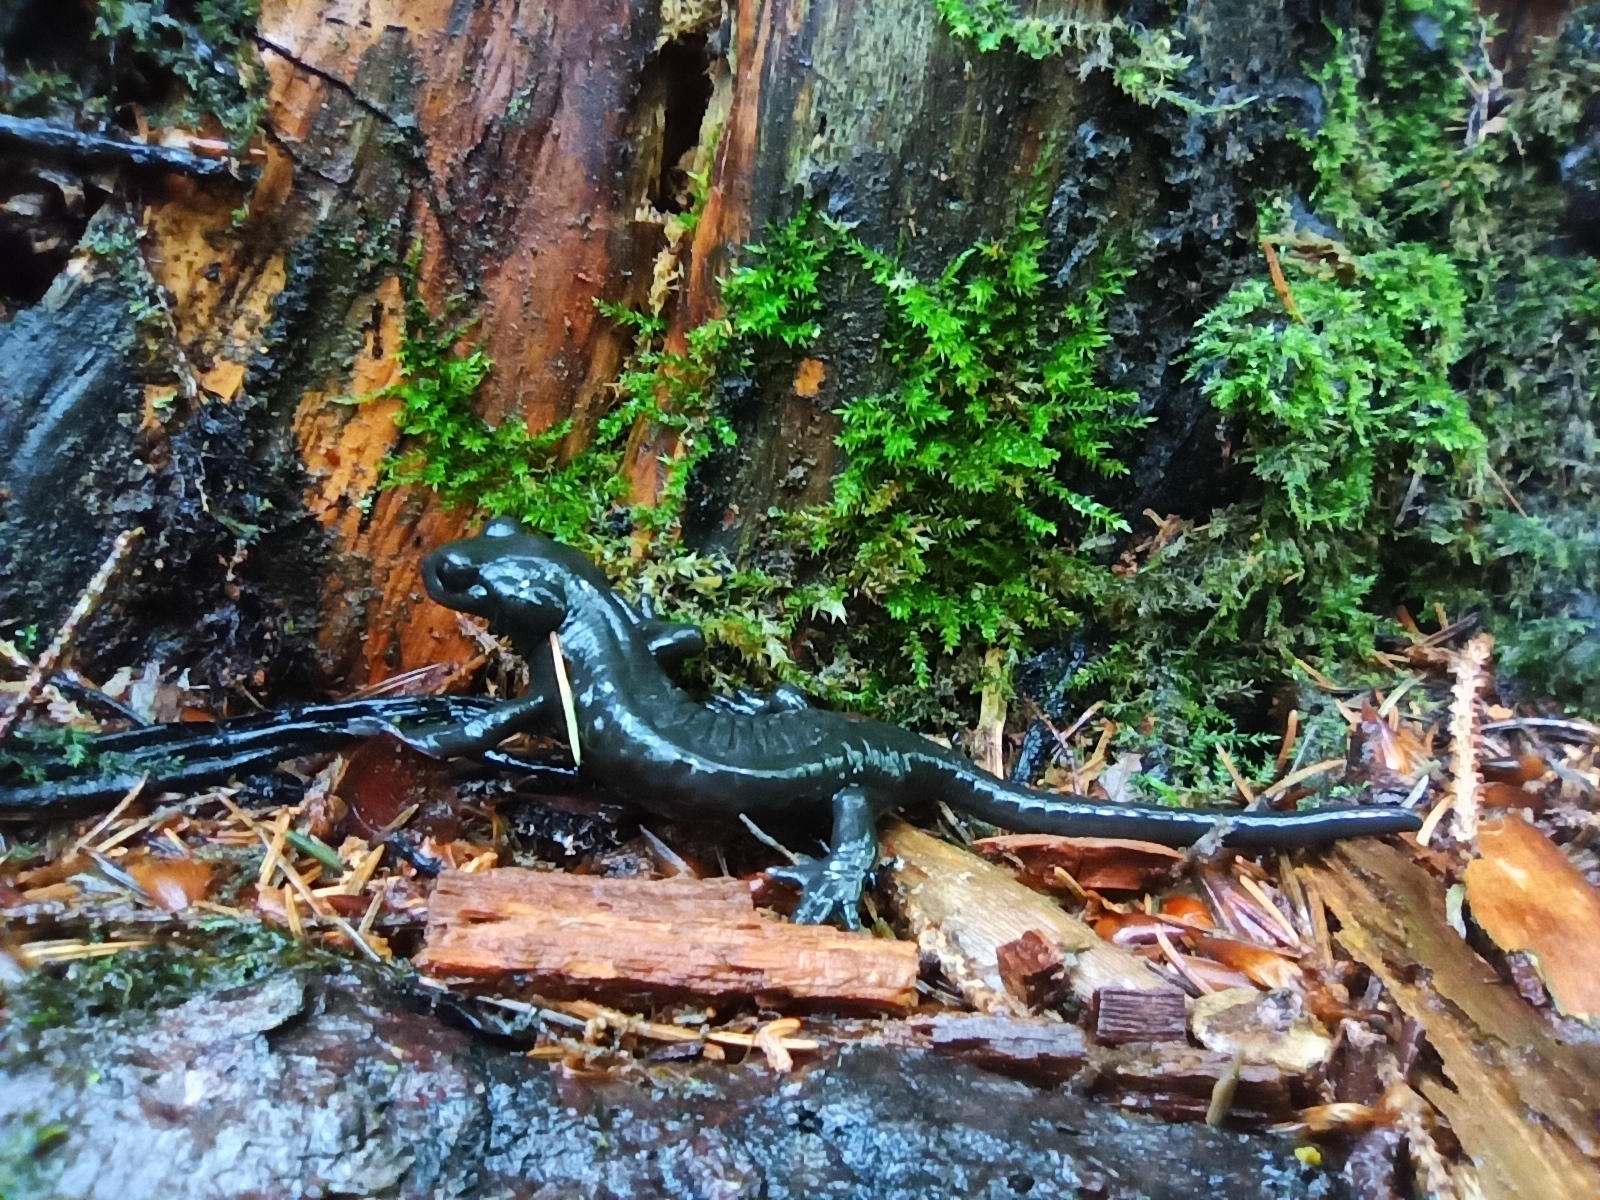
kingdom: Animalia
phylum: Chordata
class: Amphibia
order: Caudata
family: Salamandridae
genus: Salamandra
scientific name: Salamandra atra
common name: Alpine salamander
